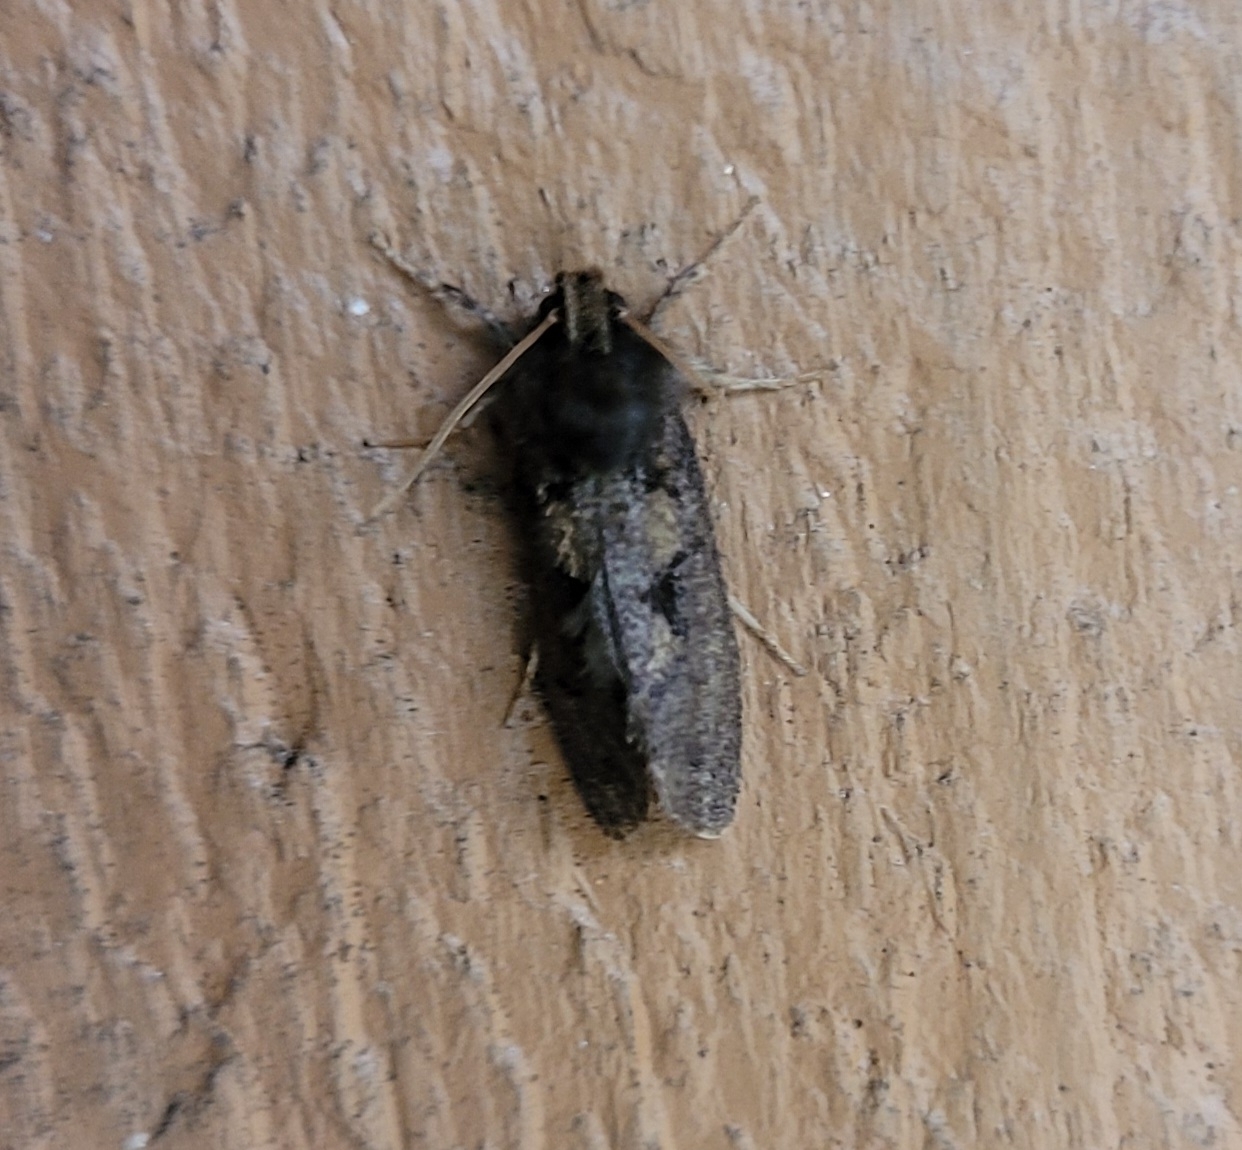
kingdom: Animalia
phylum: Arthropoda
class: Insecta
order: Lepidoptera
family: Tineidae
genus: Acrolophus
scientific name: Acrolophus mora
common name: Dark acrolophus
